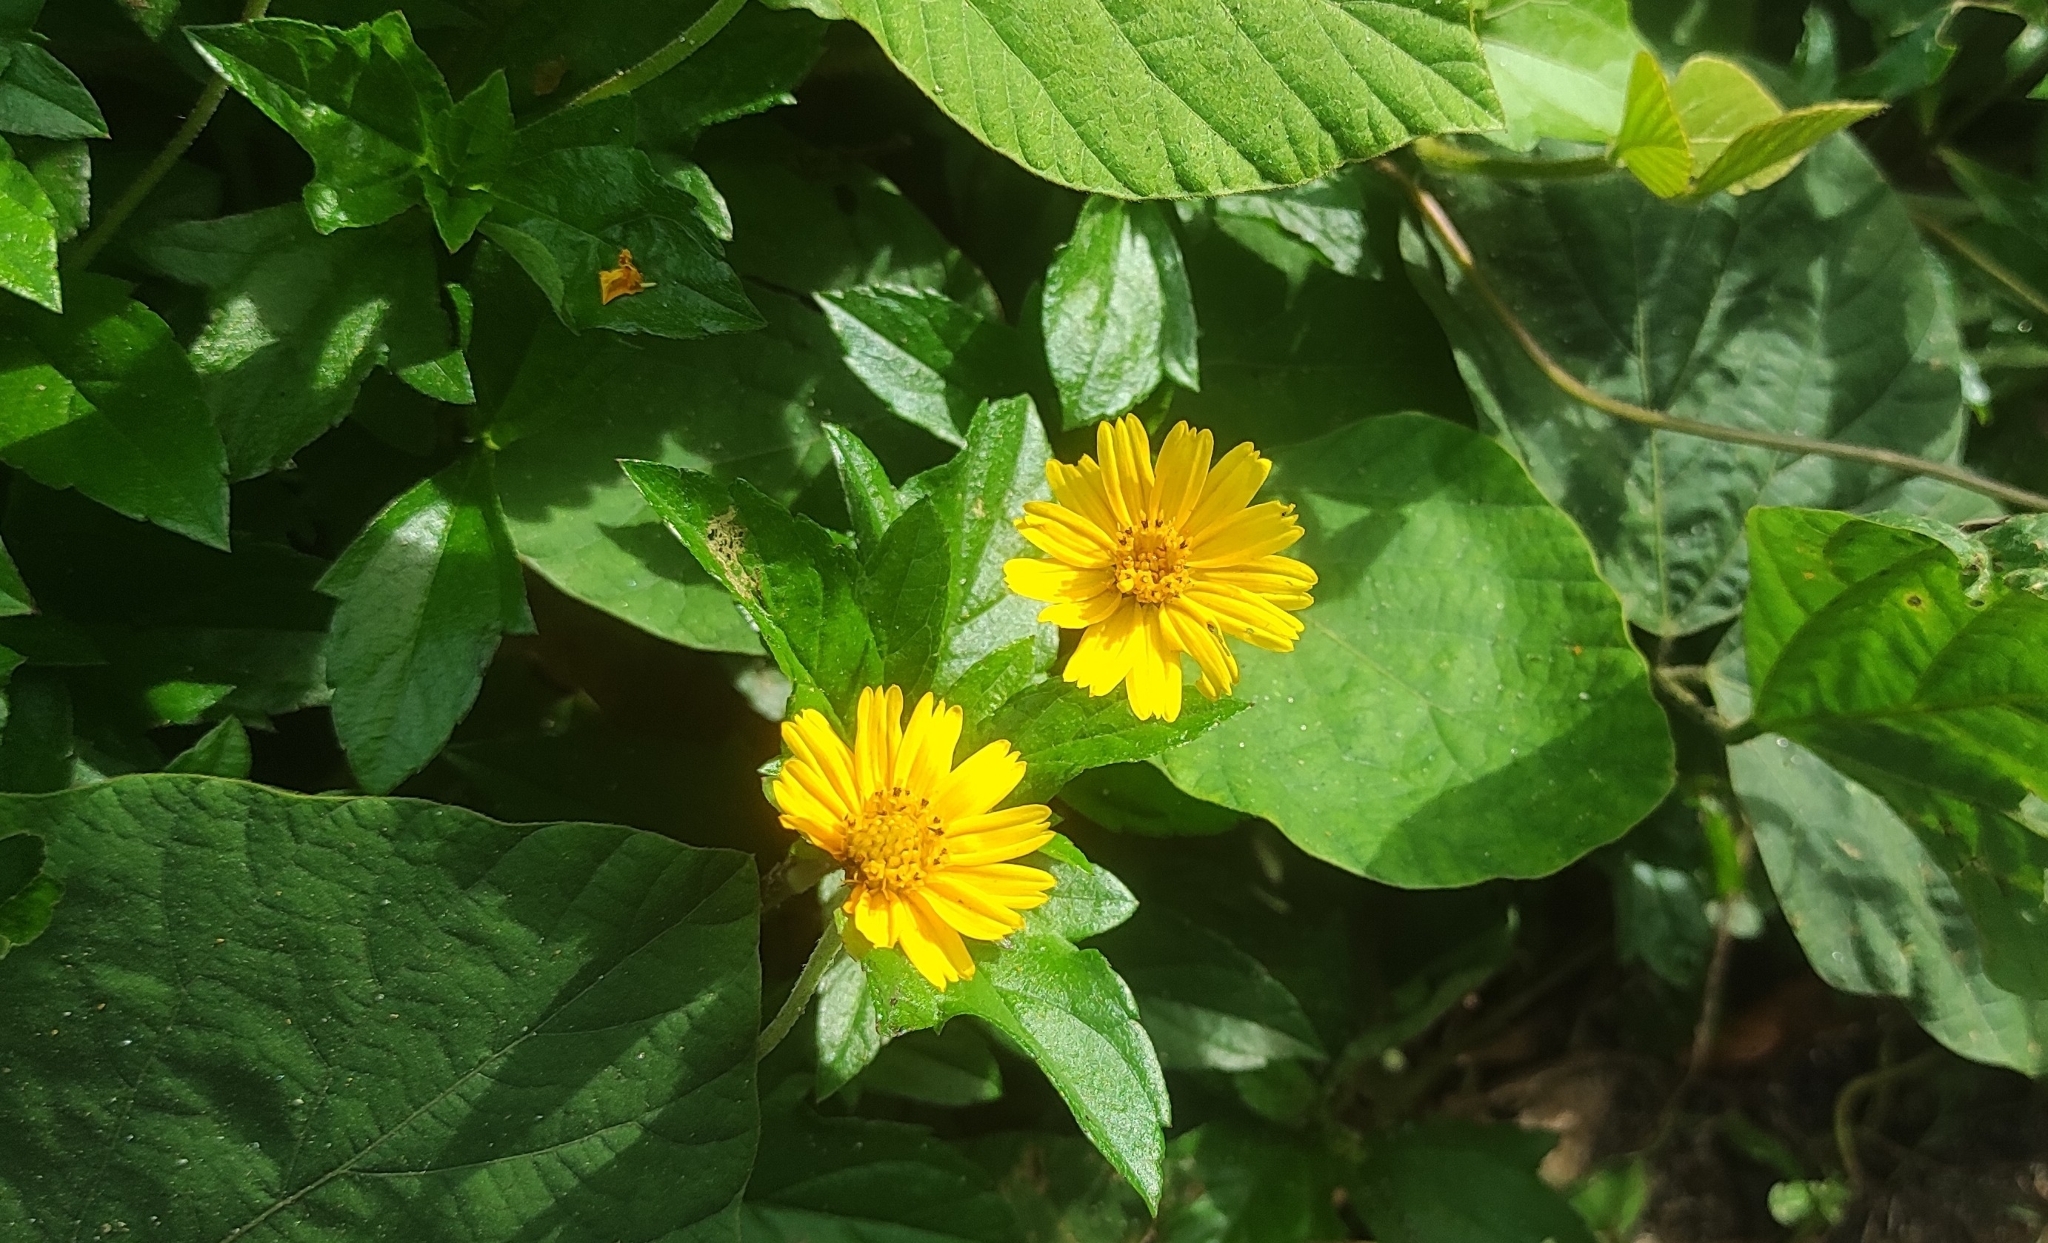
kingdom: Plantae
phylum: Tracheophyta
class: Magnoliopsida
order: Asterales
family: Asteraceae
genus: Sphagneticola
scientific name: Sphagneticola trilobata
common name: Bay biscayne creeping-oxeye
